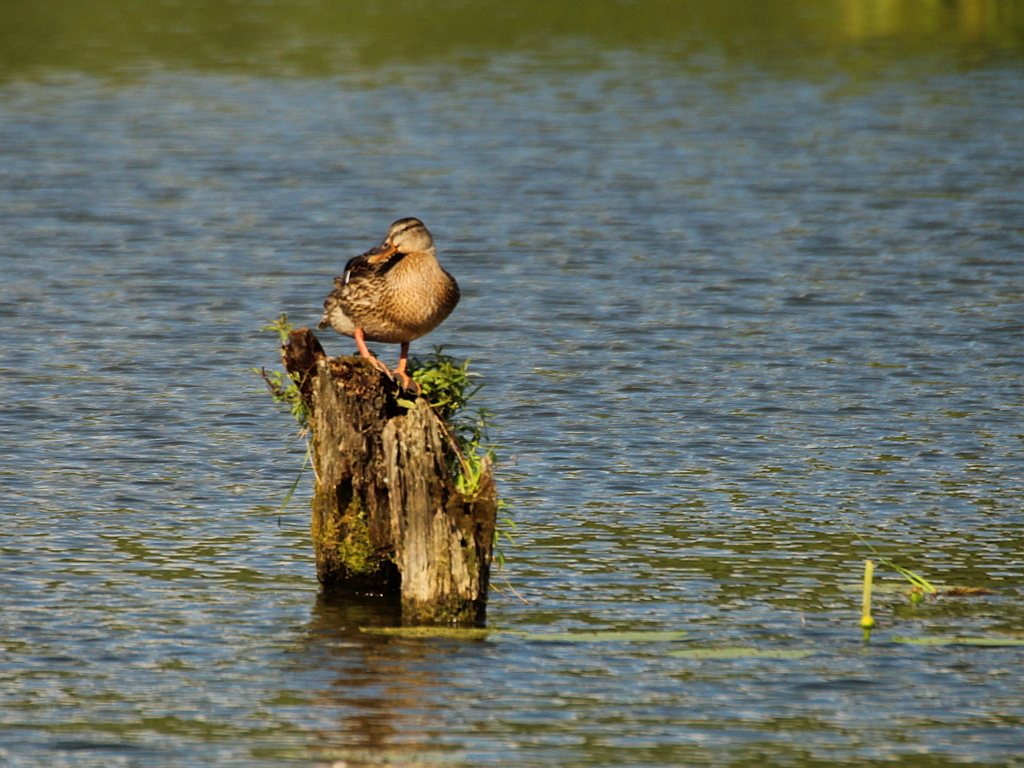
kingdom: Animalia
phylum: Chordata
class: Aves
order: Anseriformes
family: Anatidae
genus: Anas
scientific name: Anas platyrhynchos
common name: Mallard
